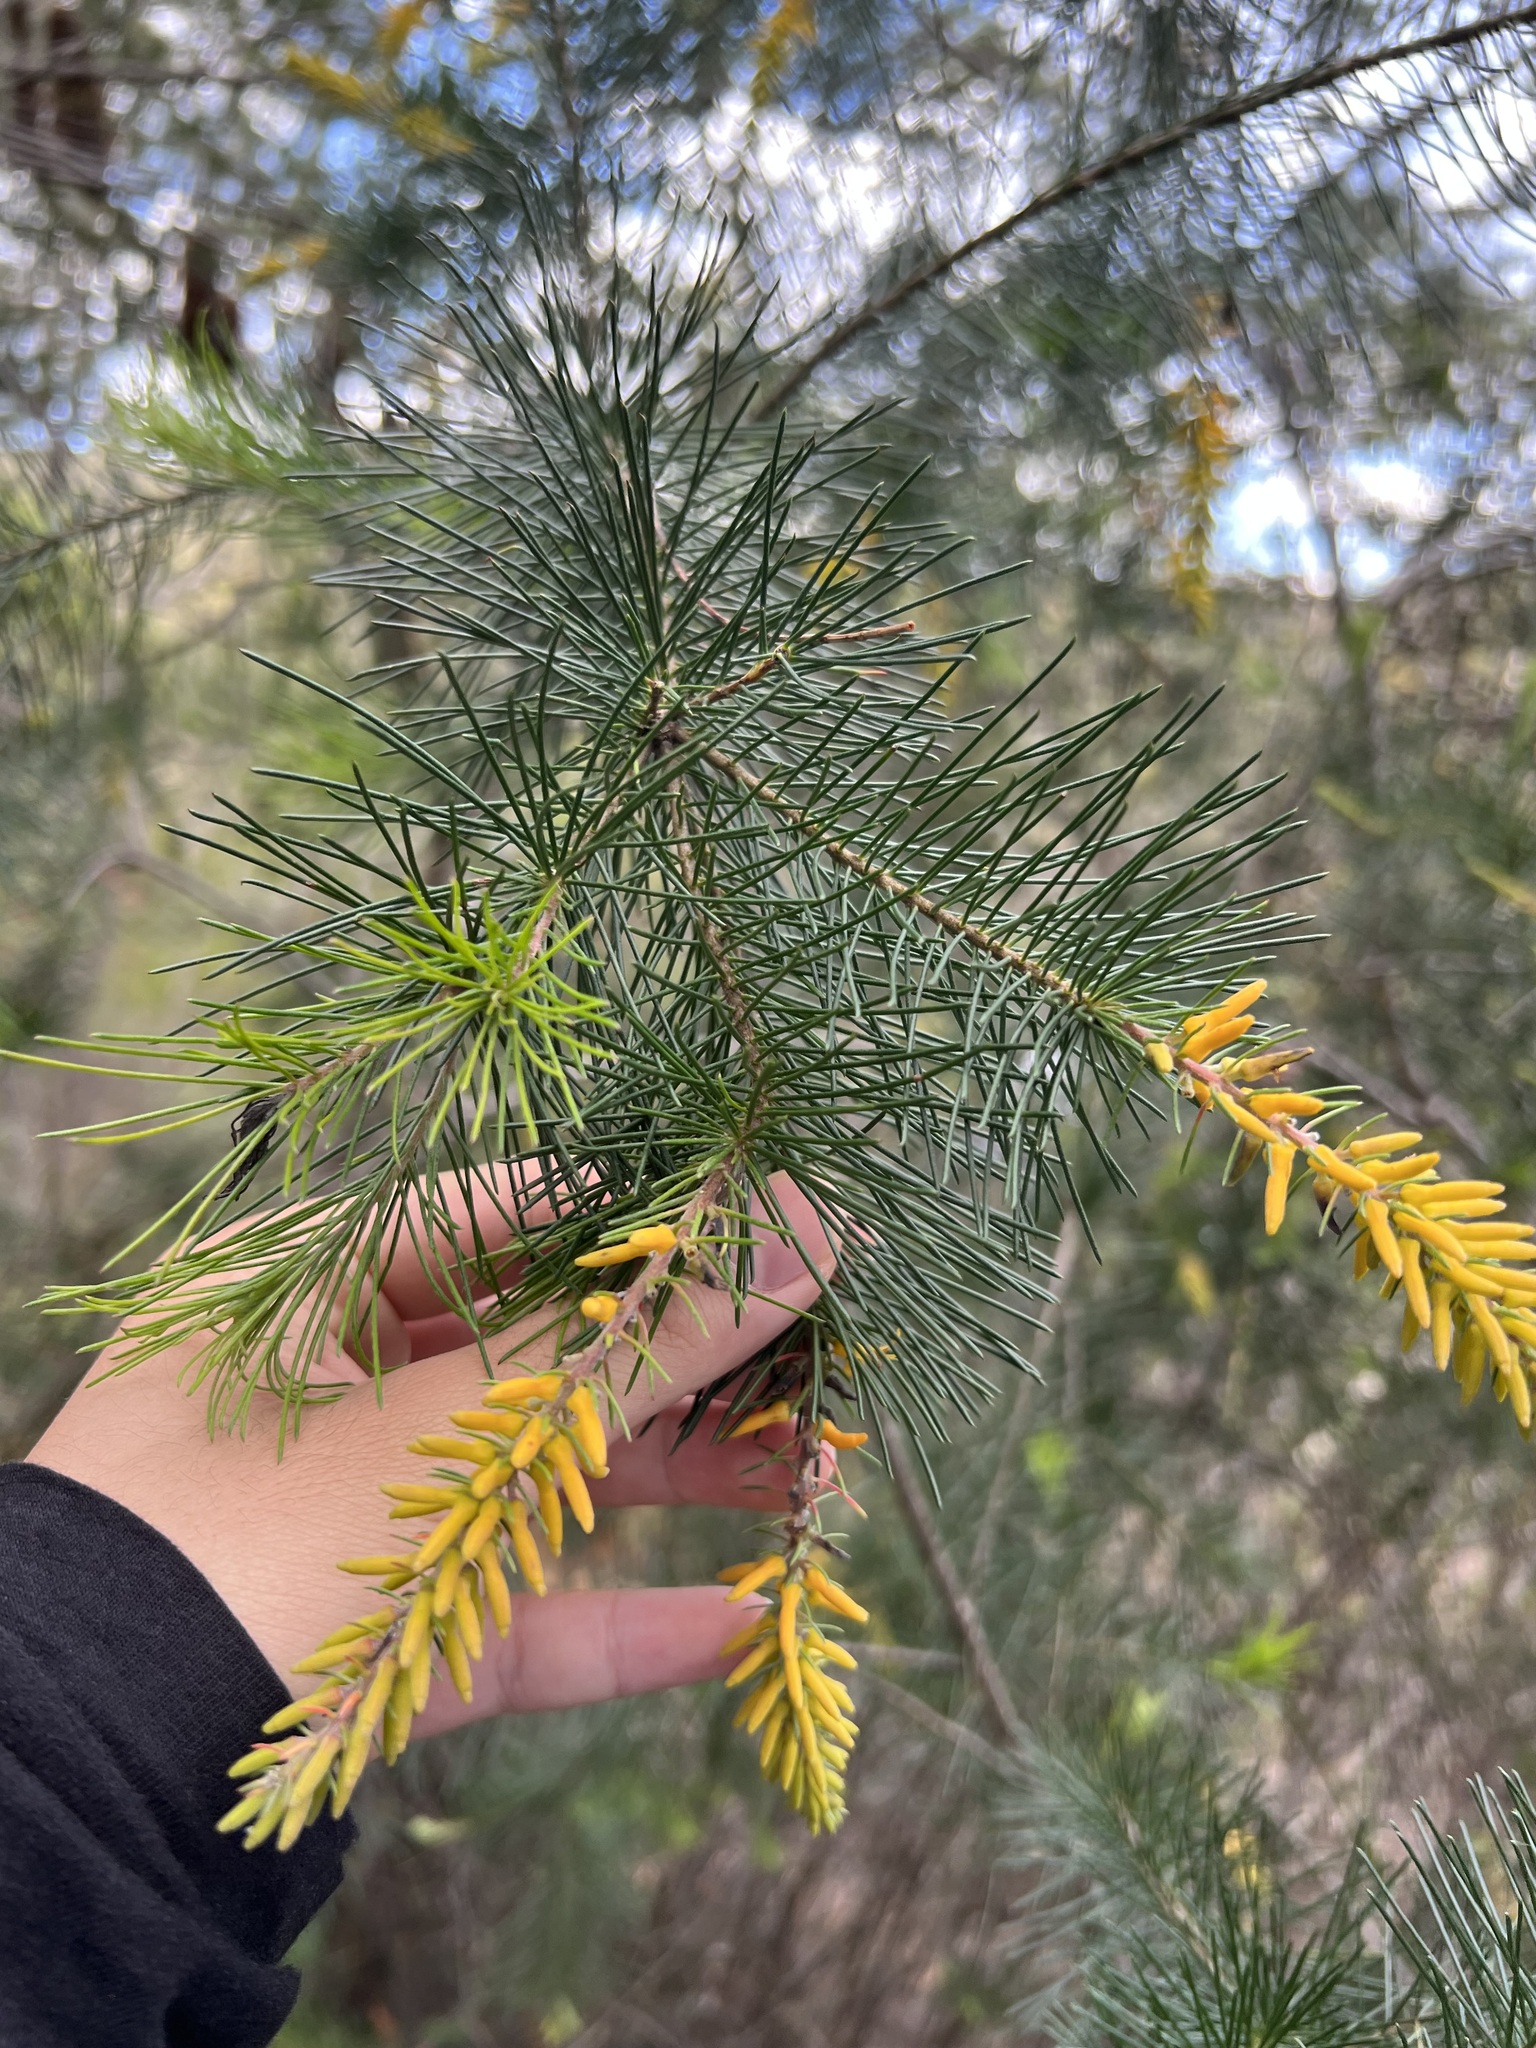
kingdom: Plantae
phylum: Tracheophyta
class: Magnoliopsida
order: Proteales
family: Proteaceae
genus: Persoonia
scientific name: Persoonia pinifolia
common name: Pine-leaf geebung
